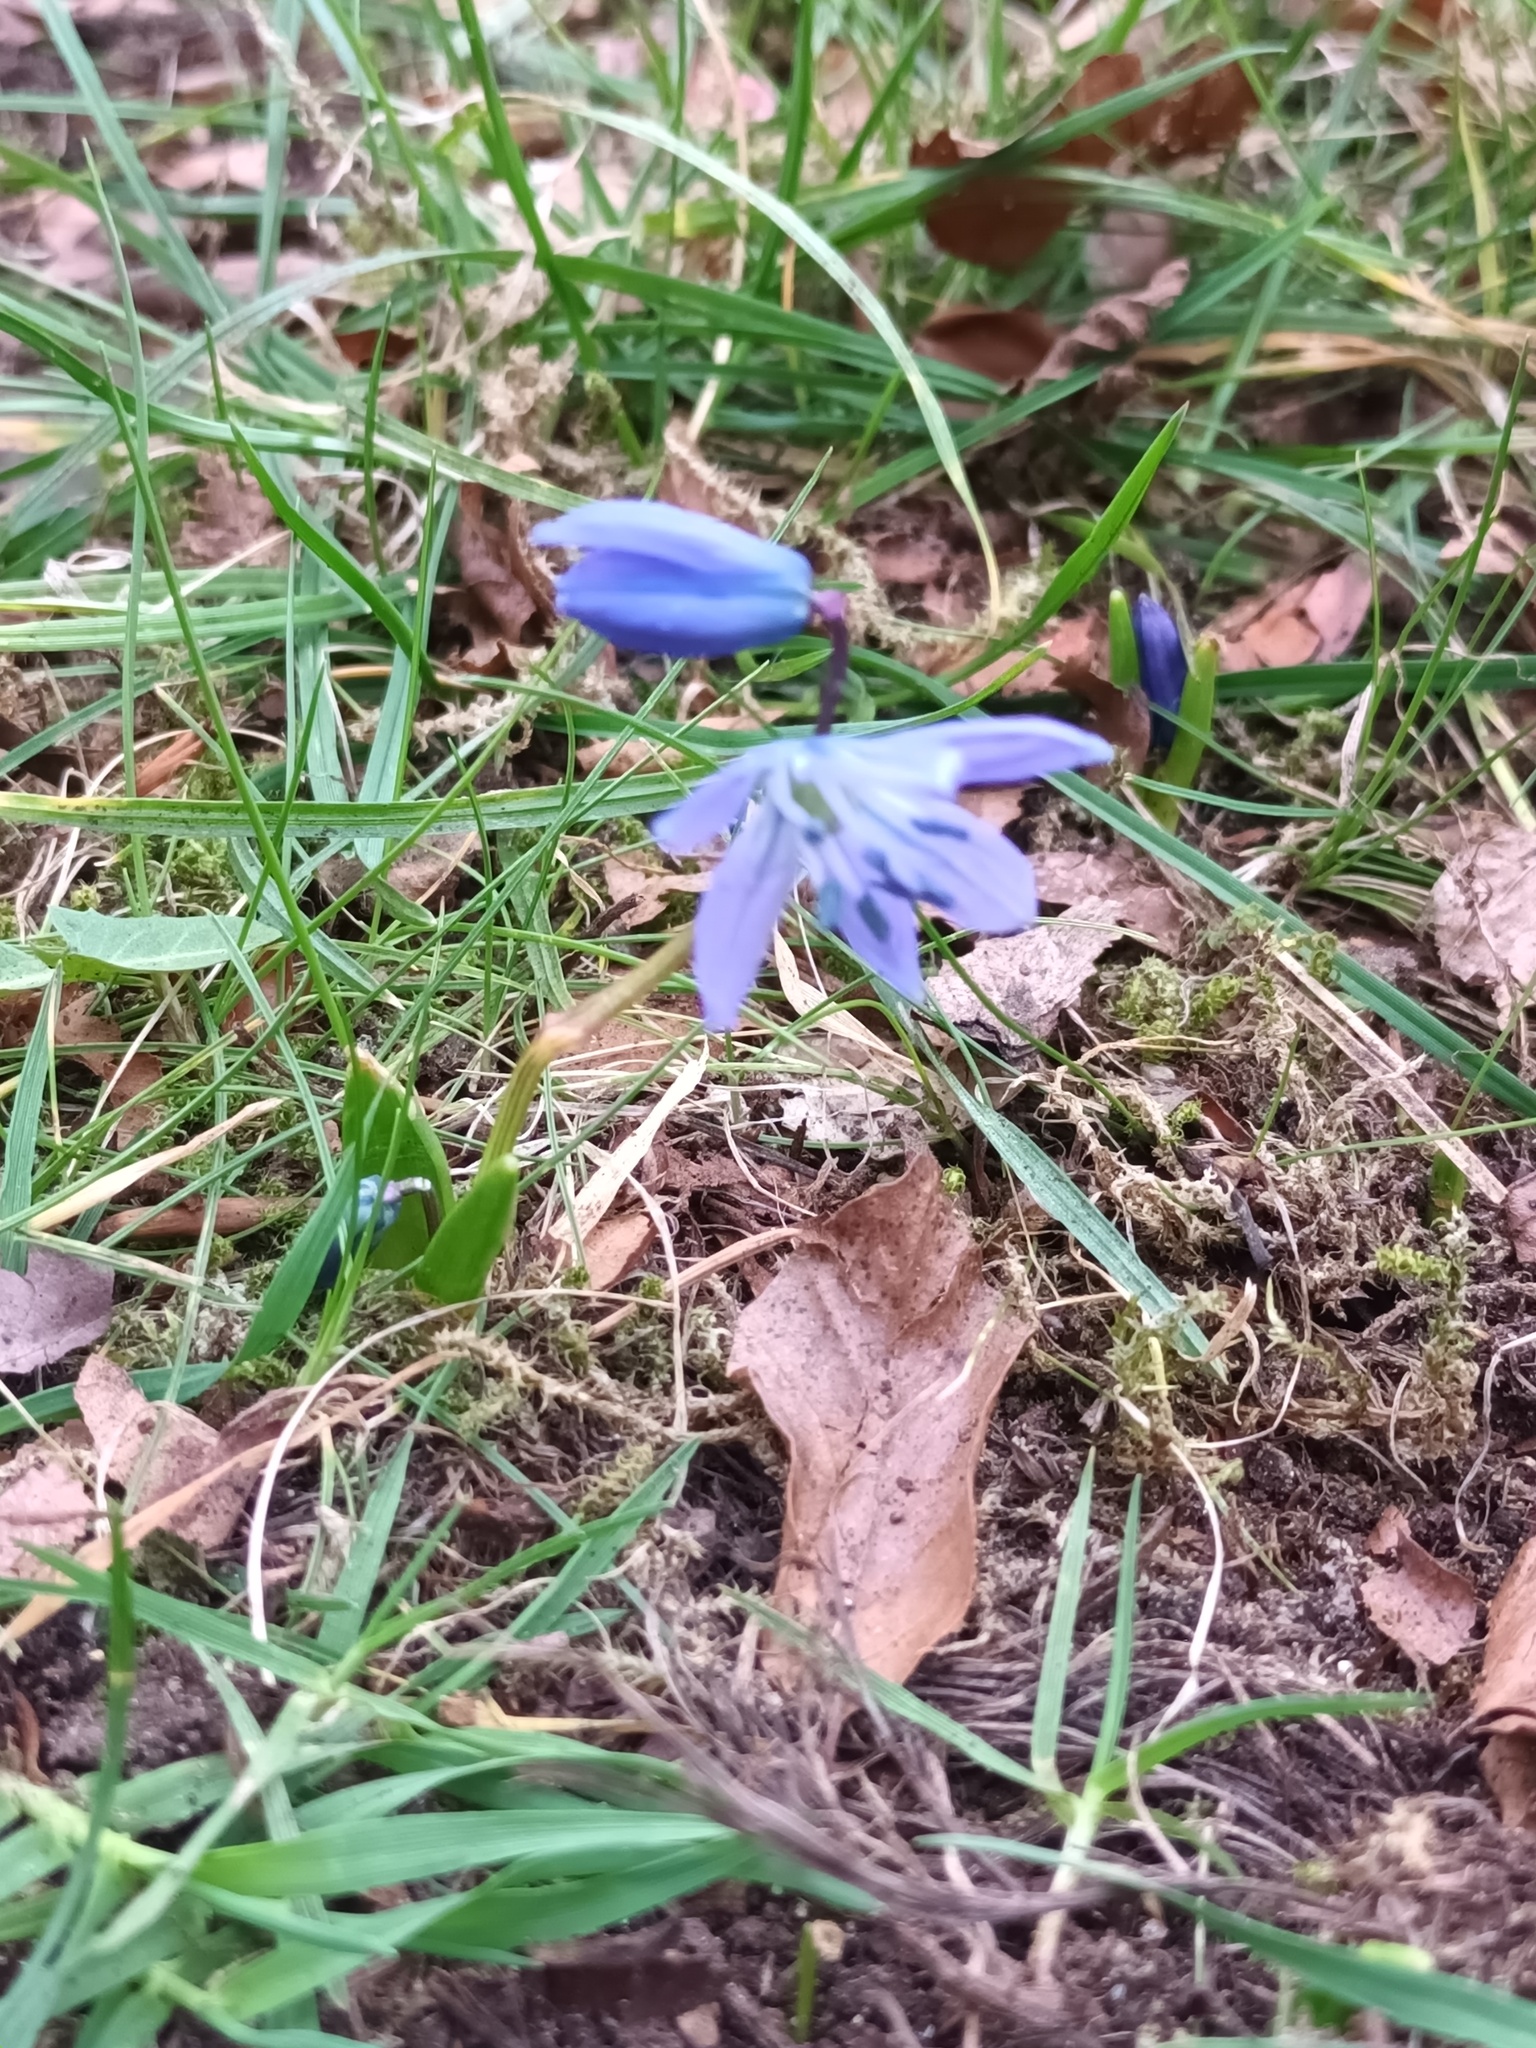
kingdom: Plantae
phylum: Tracheophyta
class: Liliopsida
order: Asparagales
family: Asparagaceae
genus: Scilla
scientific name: Scilla siberica
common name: Siberian squill
